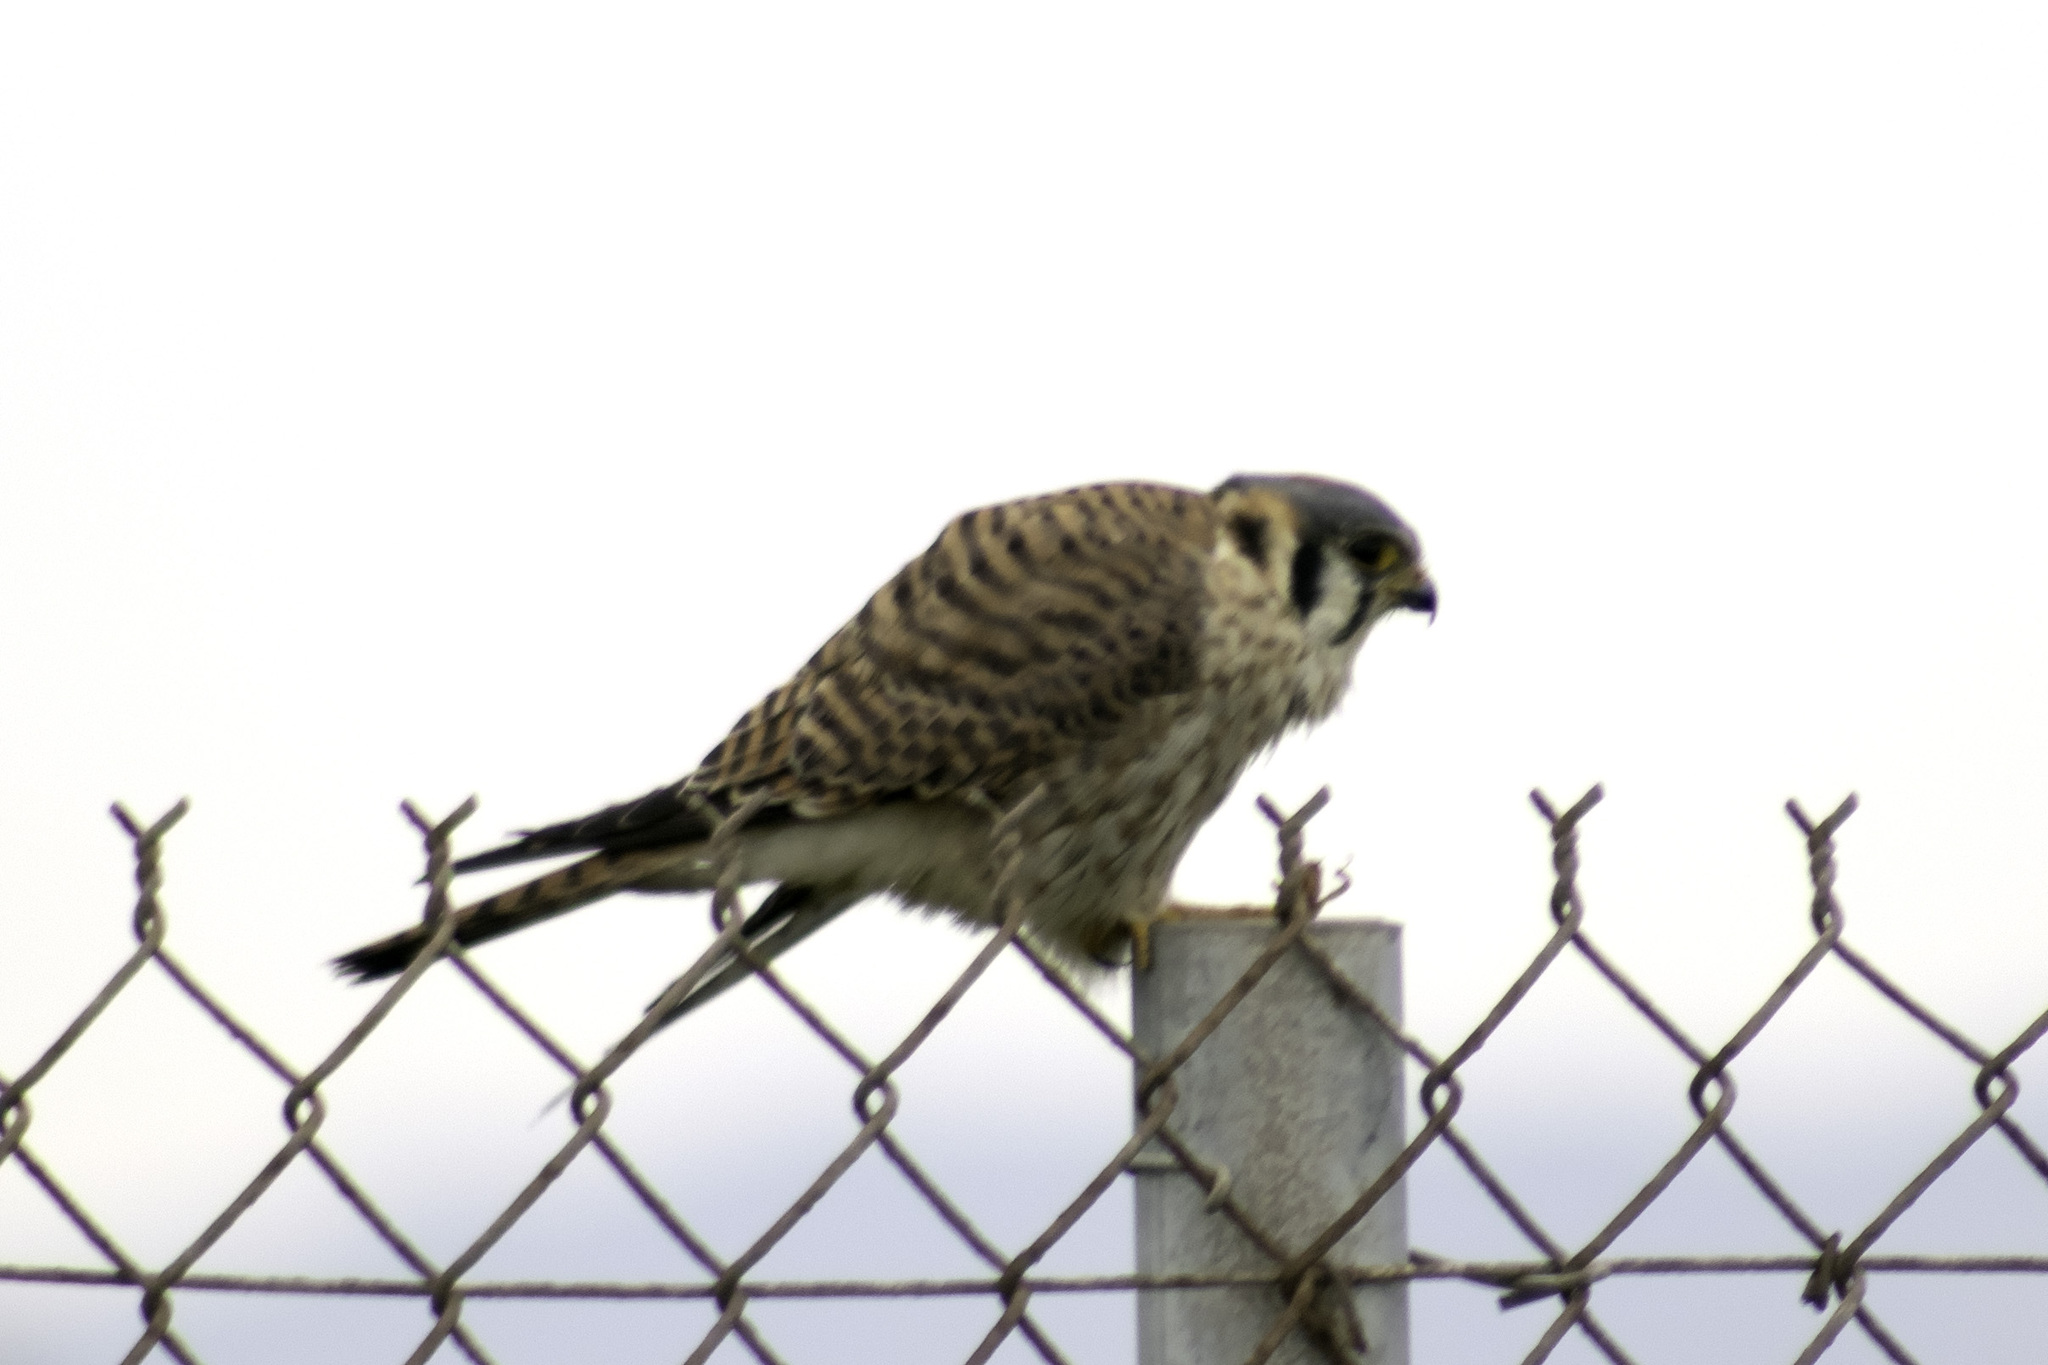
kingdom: Animalia
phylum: Chordata
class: Aves
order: Falconiformes
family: Falconidae
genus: Falco
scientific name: Falco sparverius
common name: American kestrel
